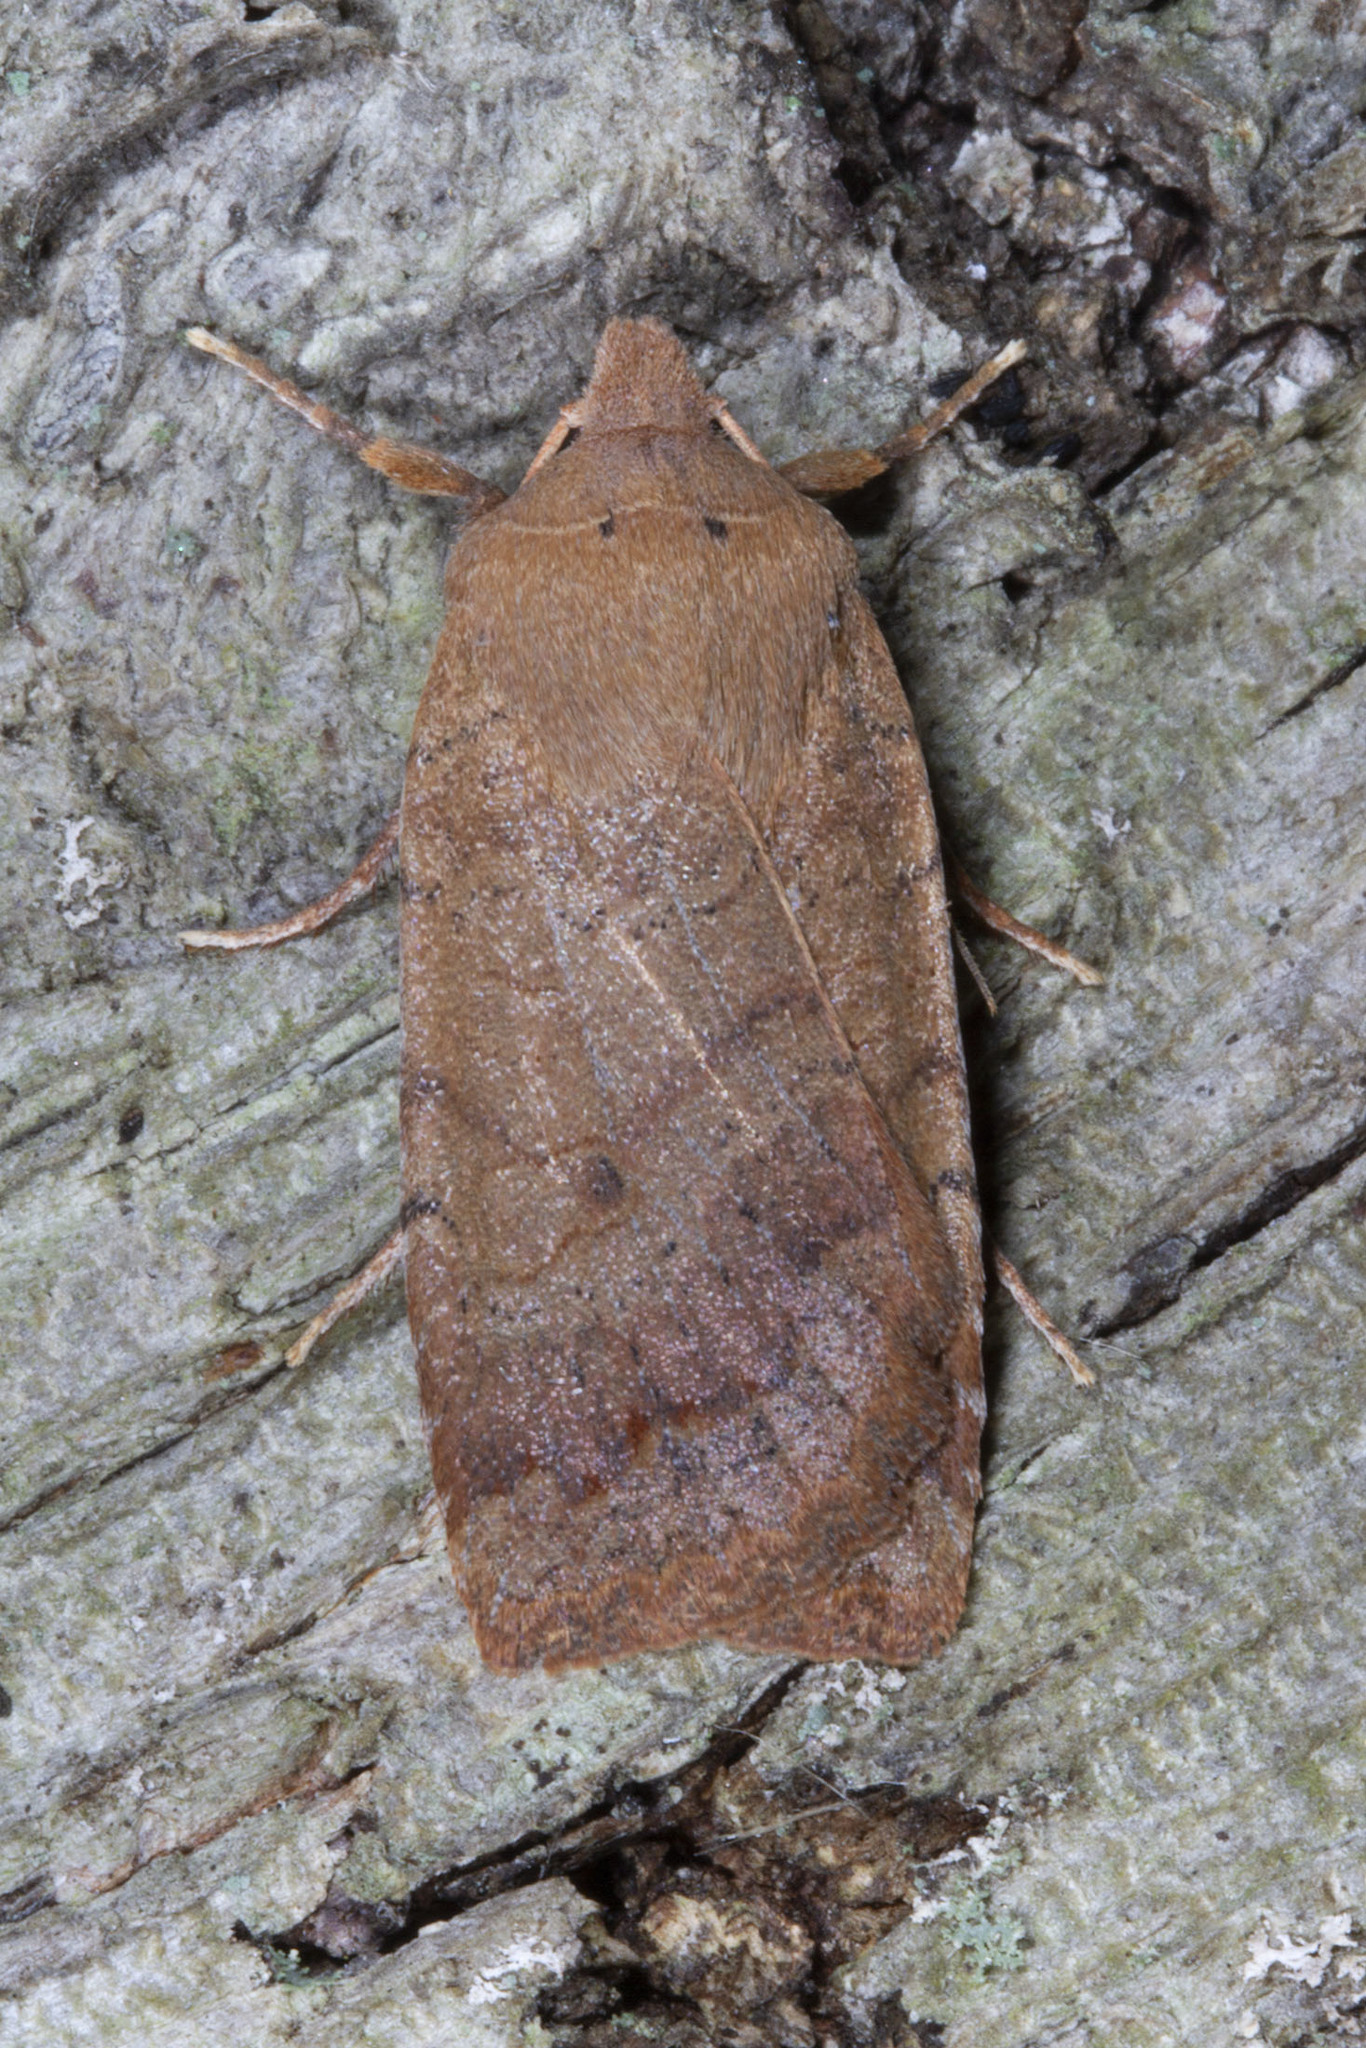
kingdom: Animalia
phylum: Arthropoda
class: Insecta
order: Lepidoptera
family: Noctuidae
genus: Sericaglaea
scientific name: Sericaglaea signata
